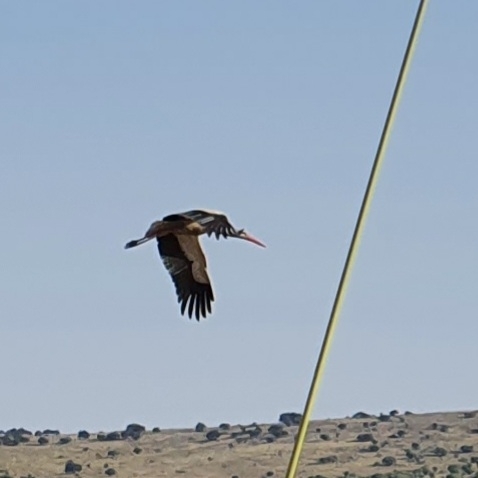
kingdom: Animalia
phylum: Chordata
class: Aves
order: Ciconiiformes
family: Ciconiidae
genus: Ciconia
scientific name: Ciconia ciconia
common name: White stork
